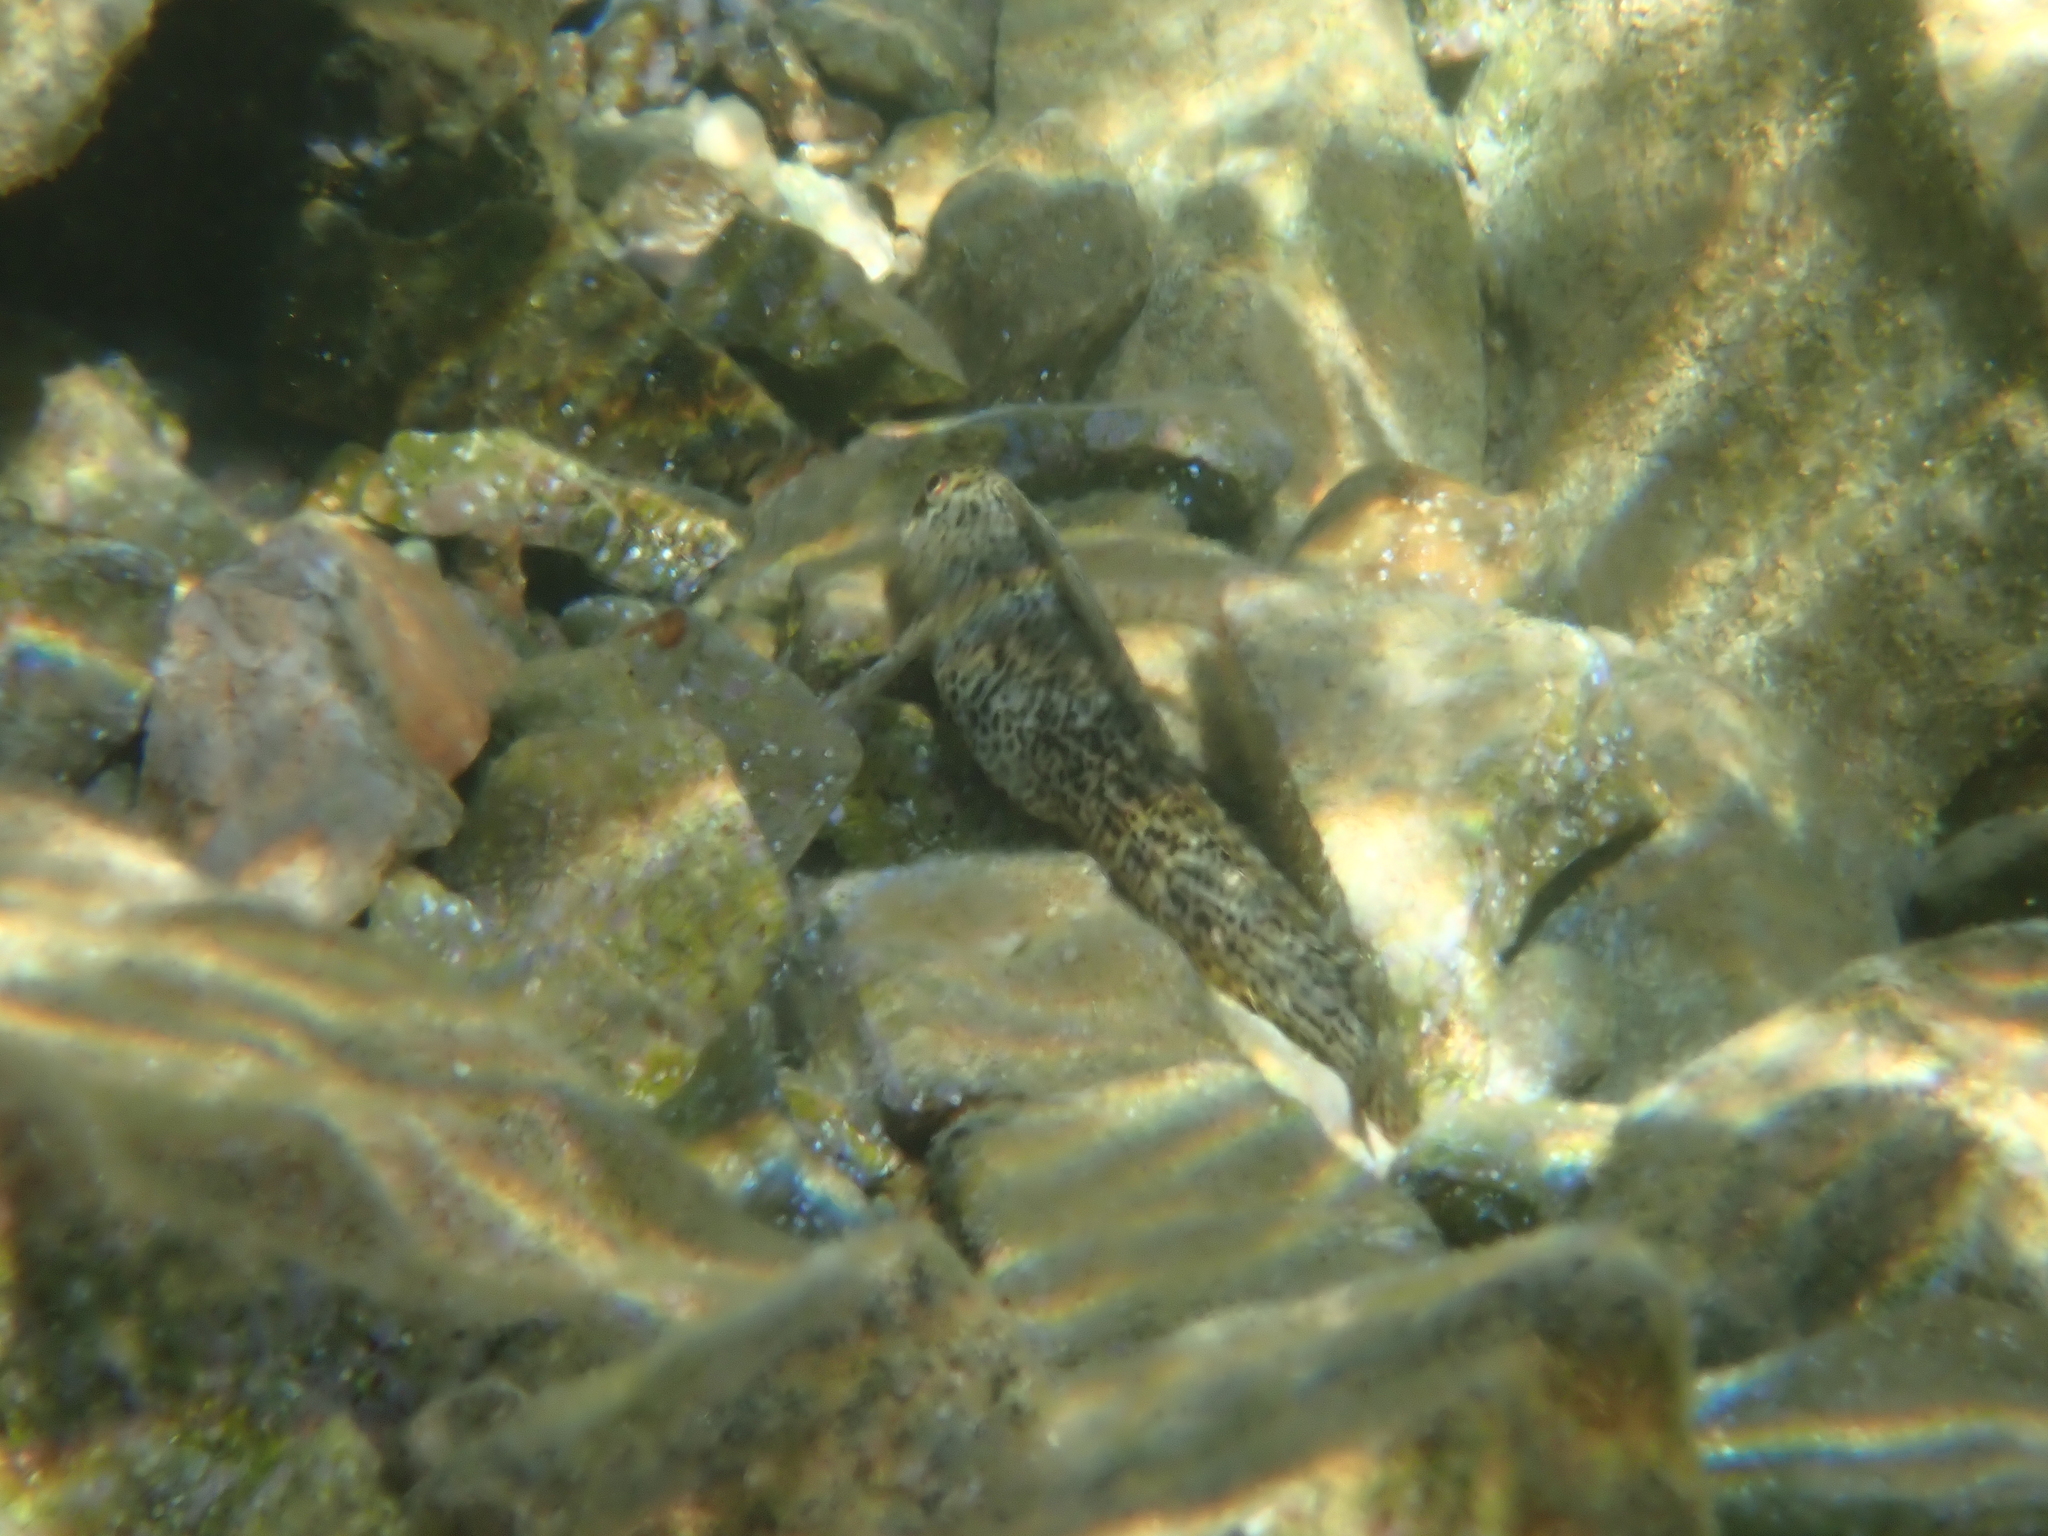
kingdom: Animalia
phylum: Chordata
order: Perciformes
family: Blenniidae
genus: Parablennius
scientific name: Parablennius sanguinolentus
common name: Black sea blenny
